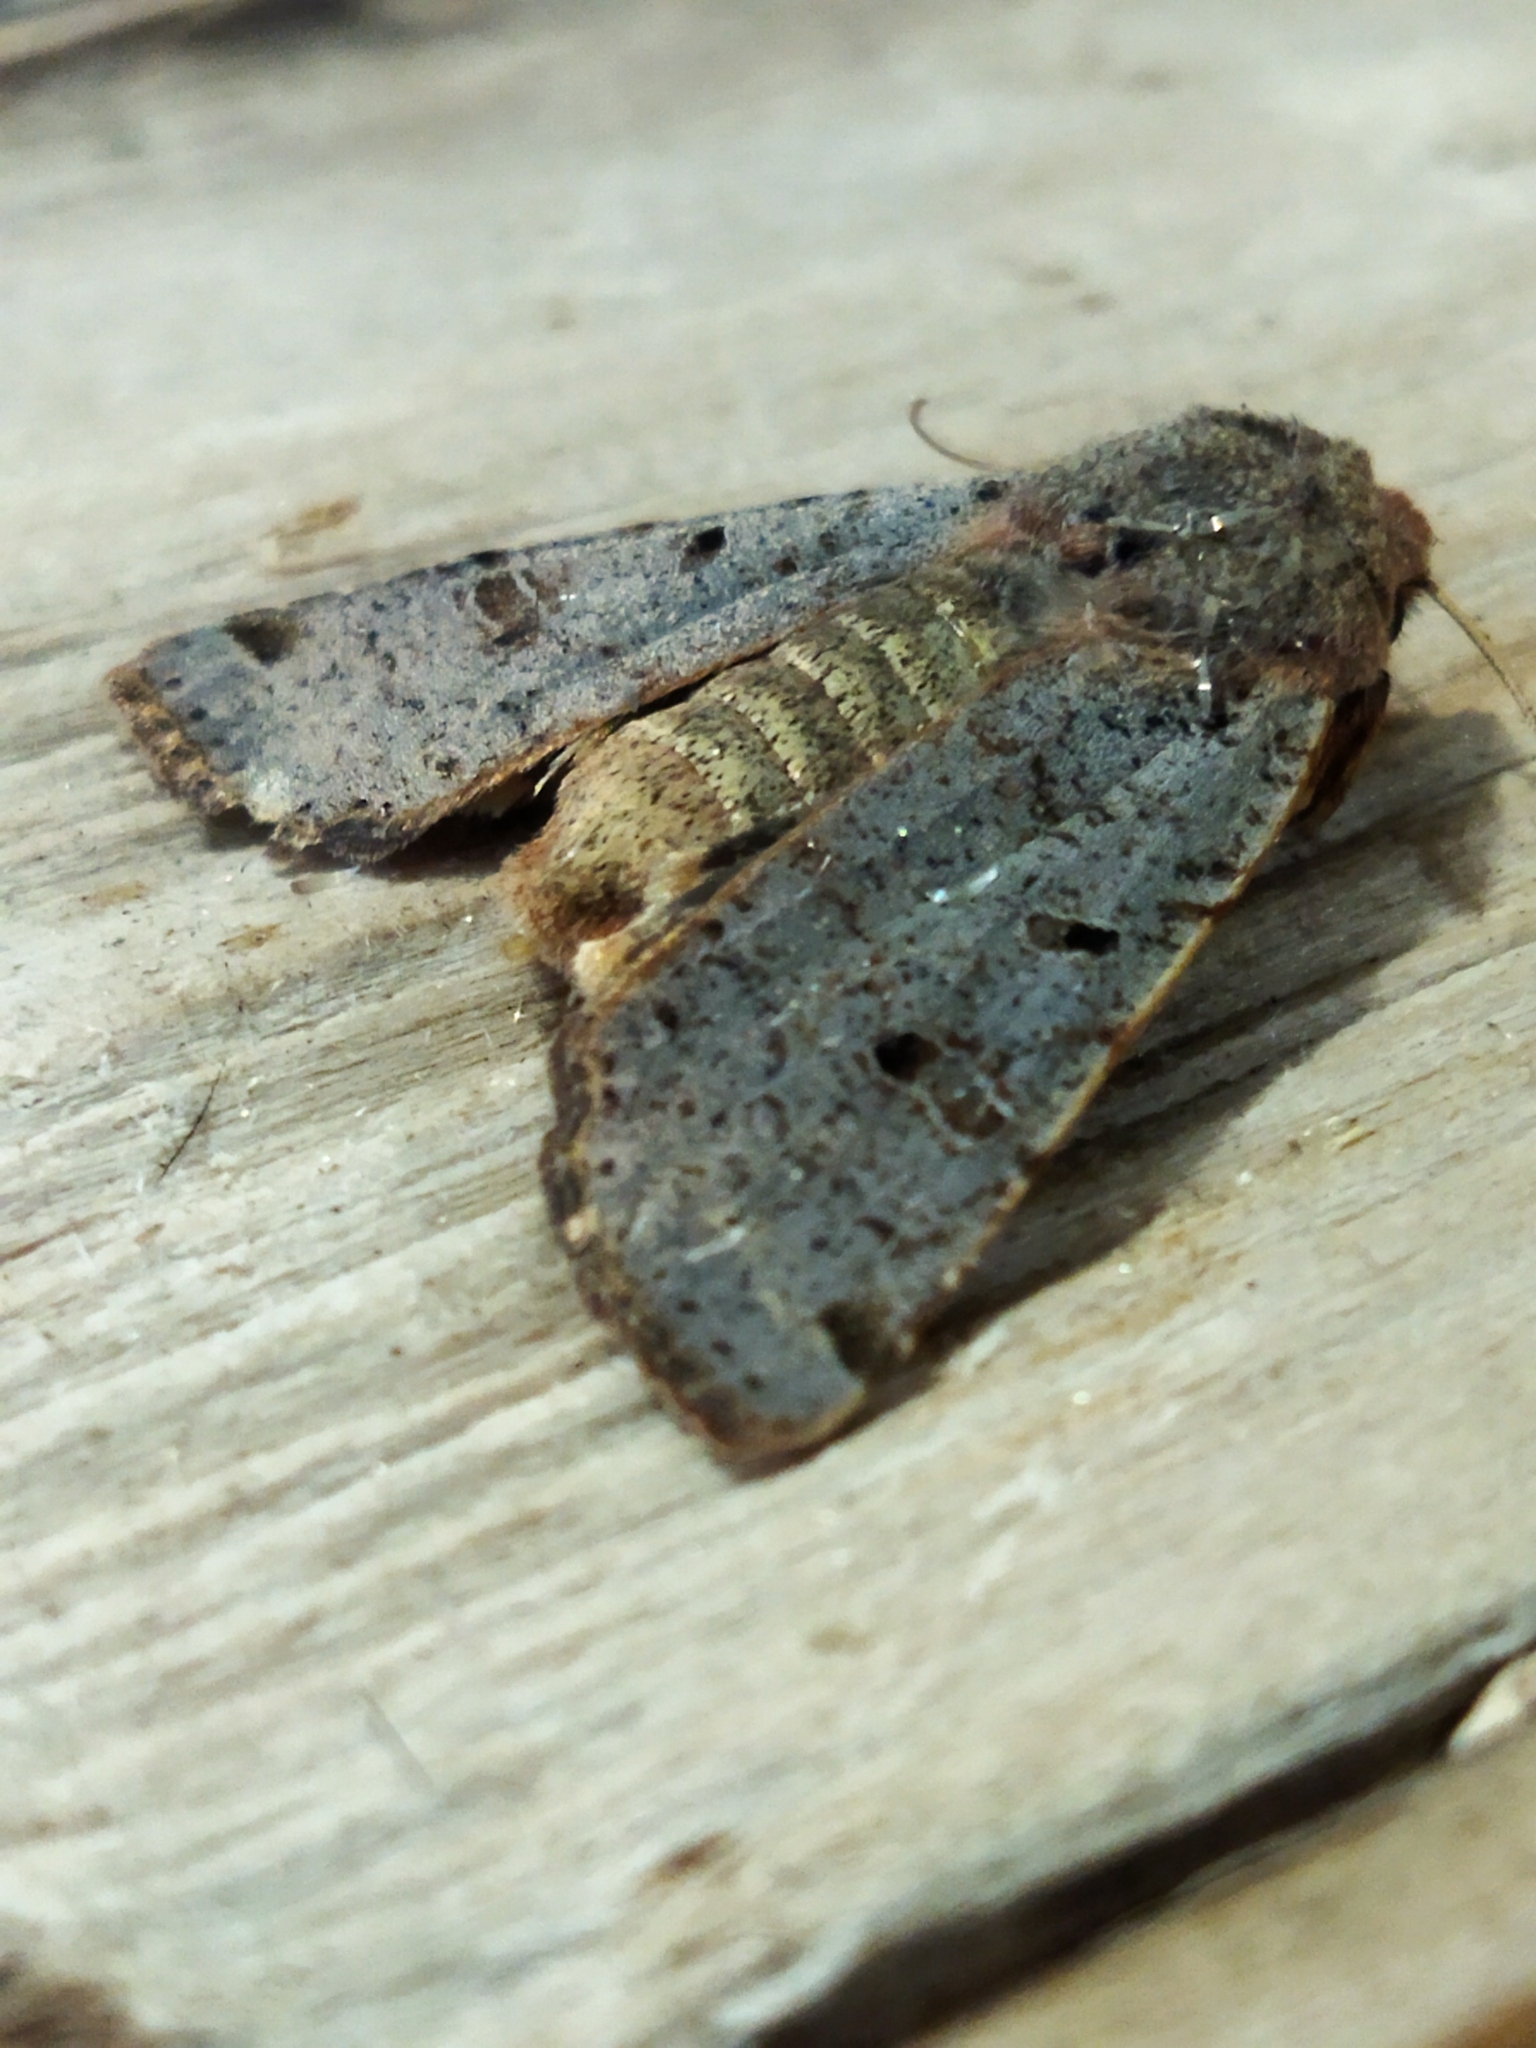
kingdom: Animalia
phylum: Arthropoda
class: Insecta
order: Lepidoptera
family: Noctuidae
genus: Agrochola
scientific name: Agrochola lychnidis
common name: Beaded chestnut
